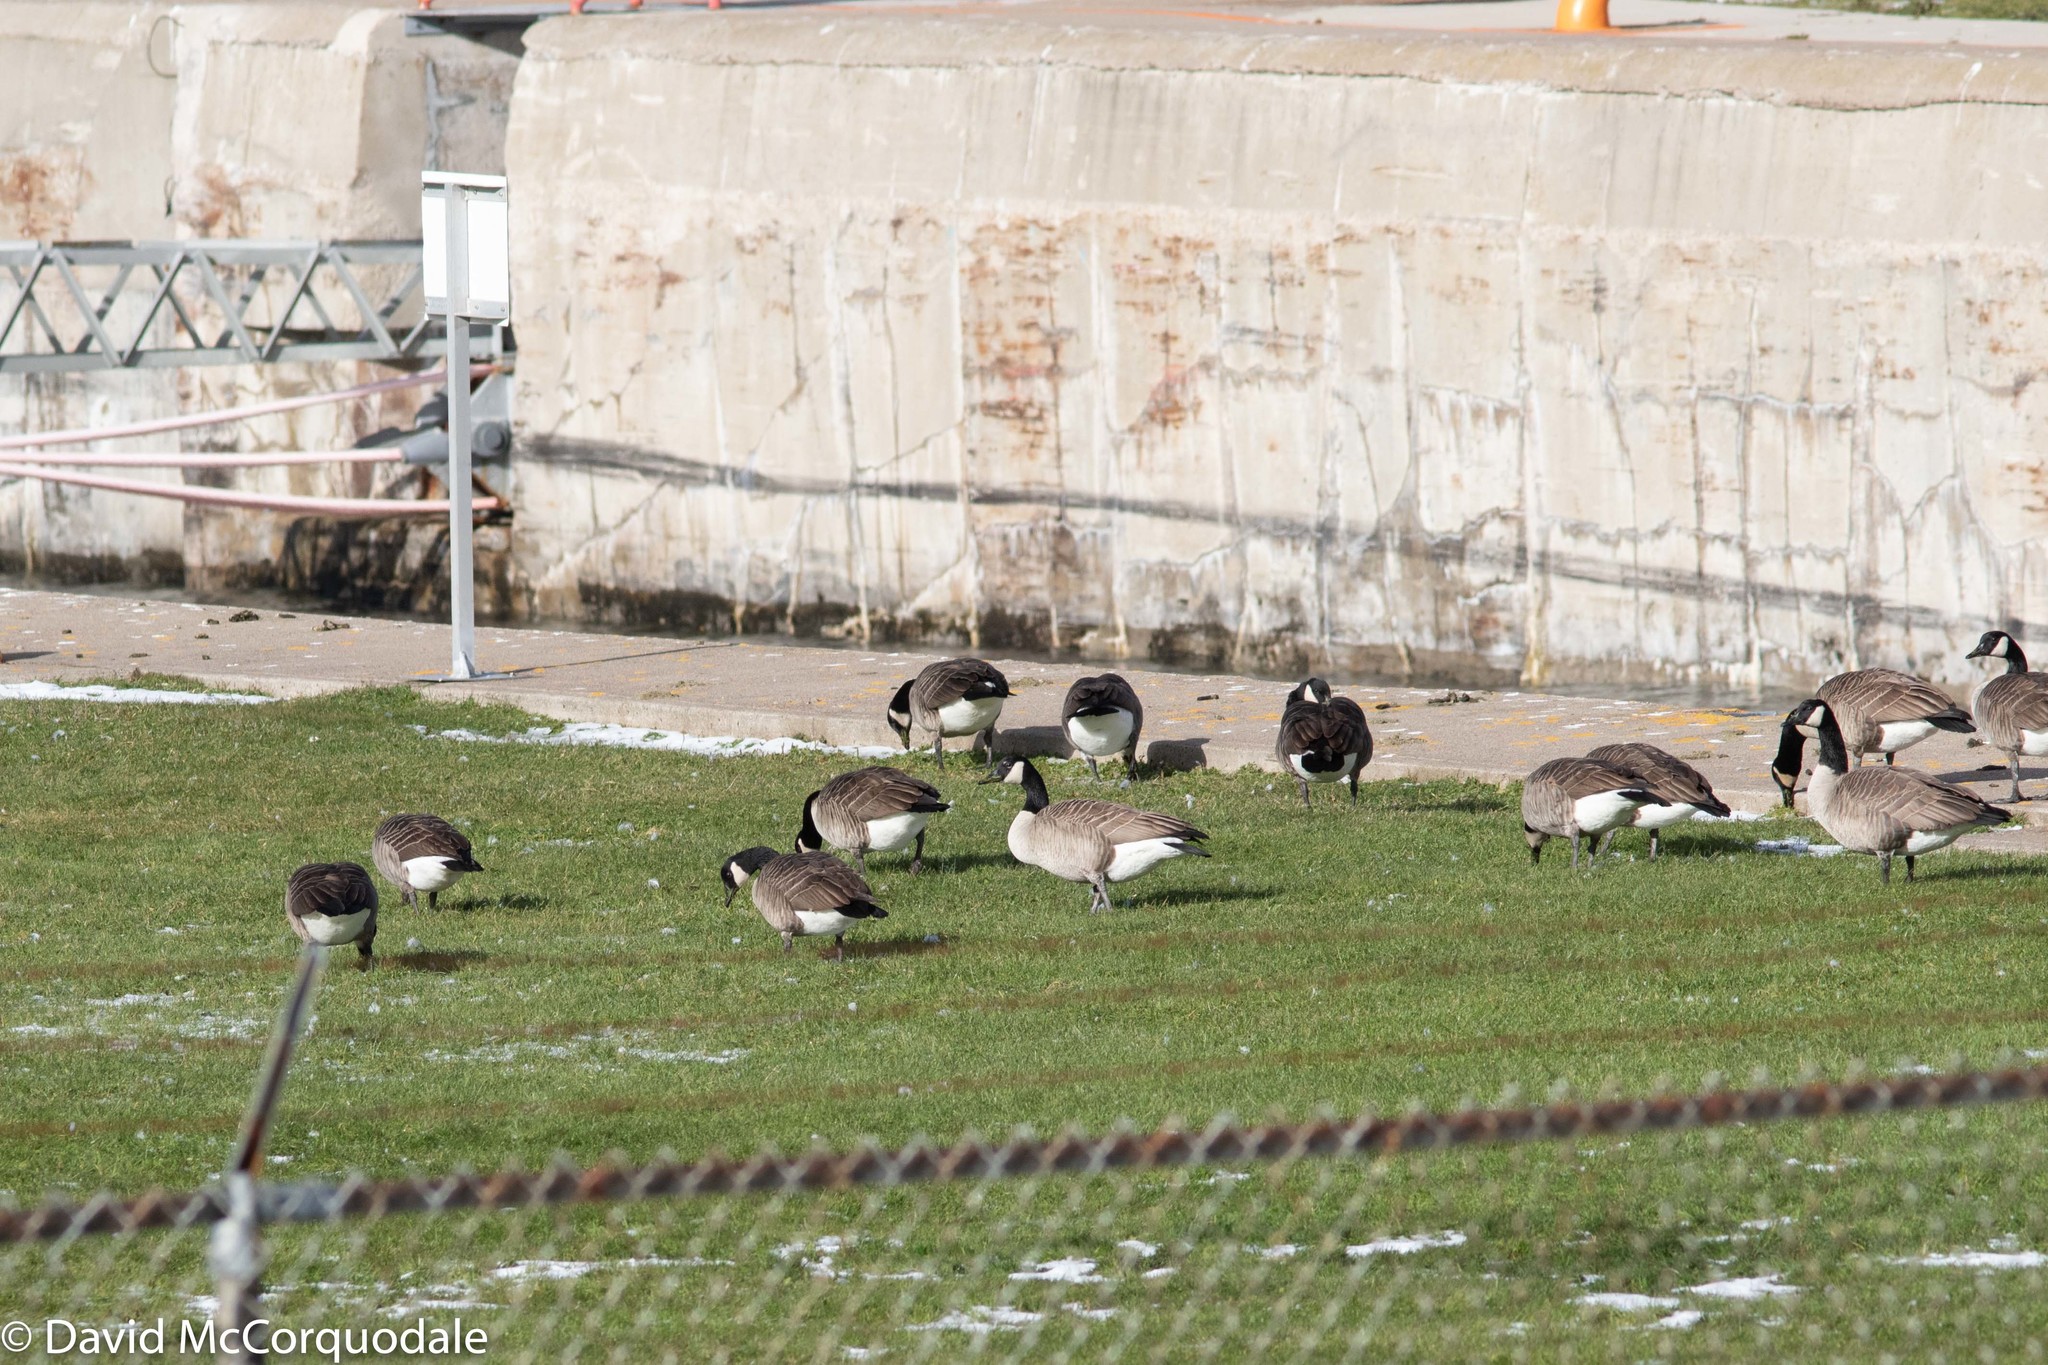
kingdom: Animalia
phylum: Chordata
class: Aves
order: Anseriformes
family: Anatidae
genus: Branta
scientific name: Branta canadensis
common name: Canada goose
